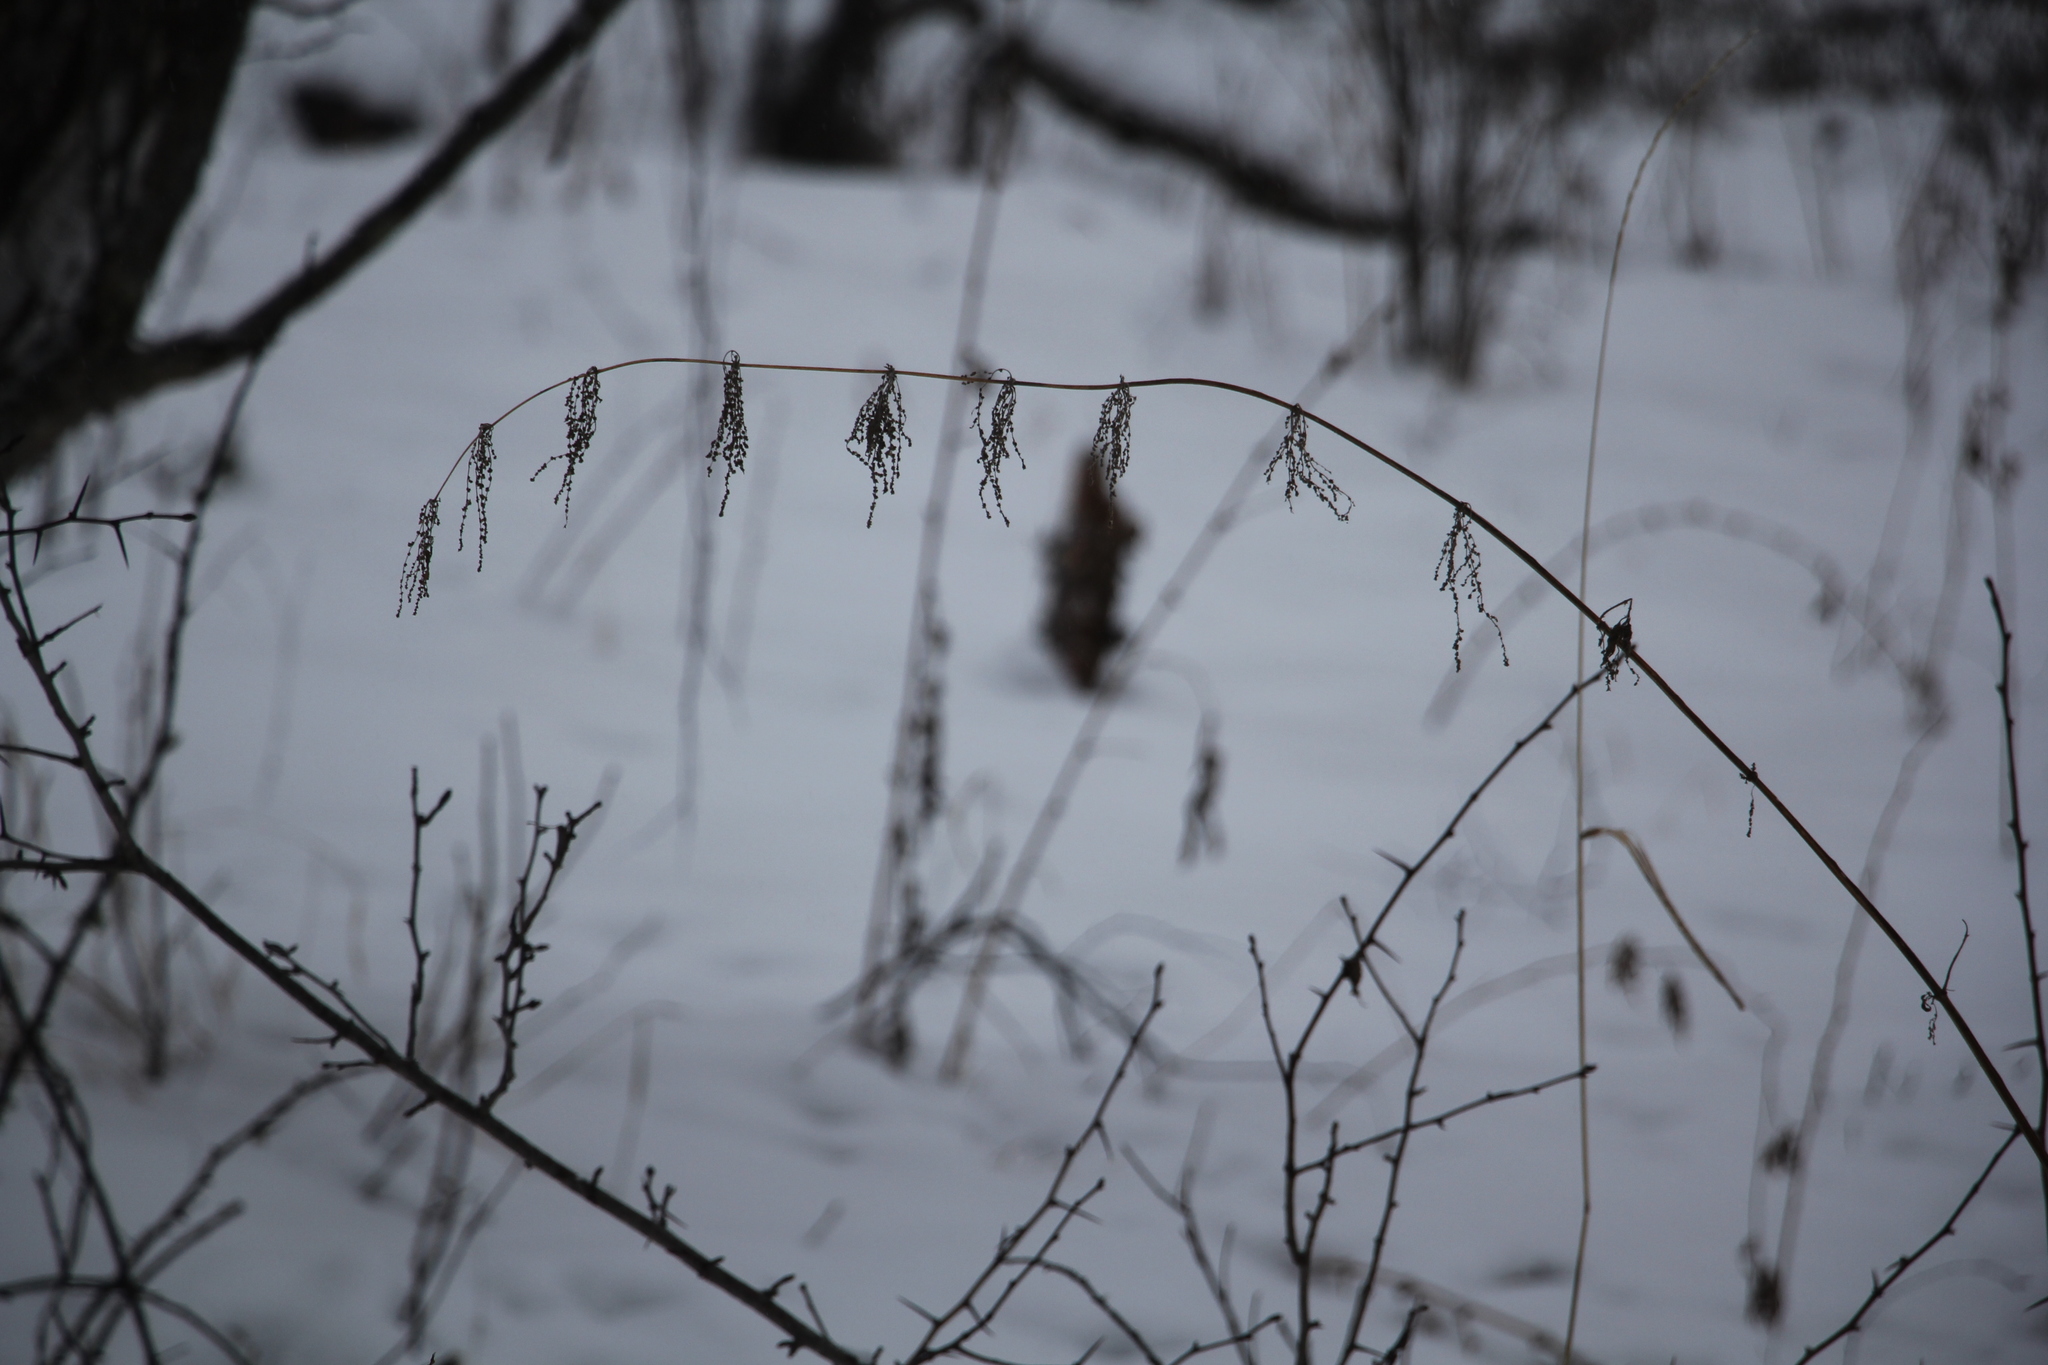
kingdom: Plantae
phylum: Tracheophyta
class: Magnoliopsida
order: Rosales
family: Urticaceae
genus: Urtica
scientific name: Urtica dioica
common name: Common nettle
